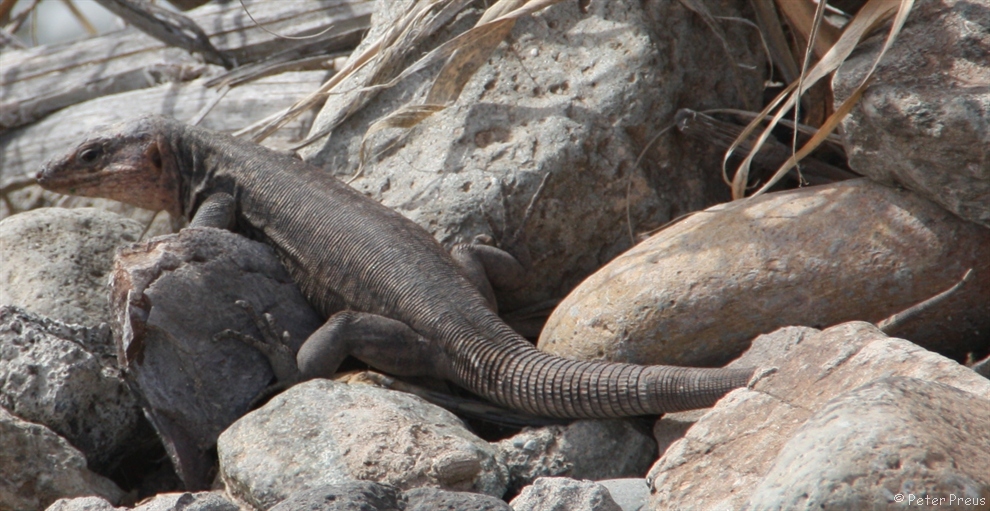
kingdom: Animalia
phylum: Chordata
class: Squamata
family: Lacertidae
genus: Gallotia
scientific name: Gallotia stehlini
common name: Gran canaria giant lizard
